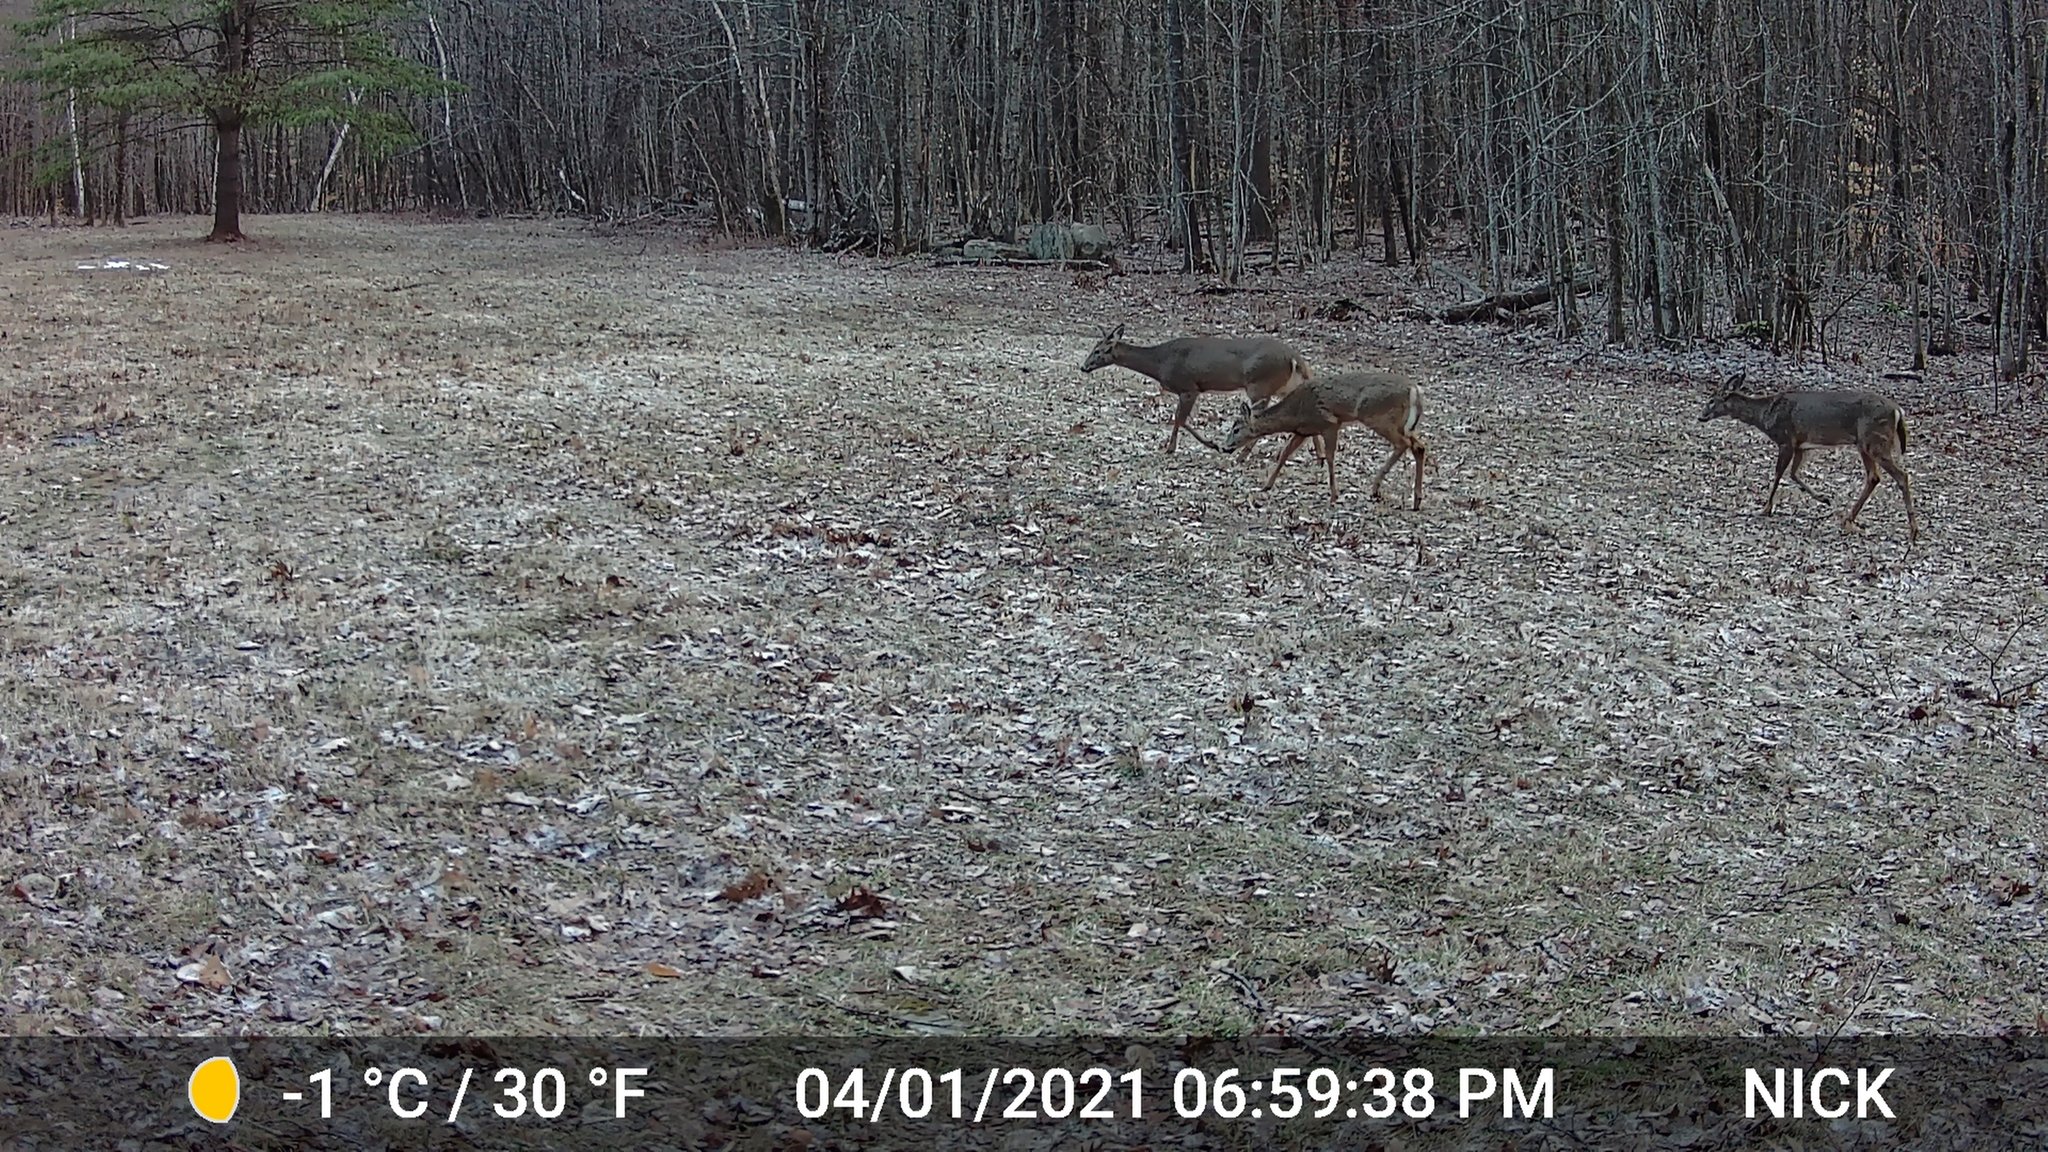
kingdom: Animalia
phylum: Chordata
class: Mammalia
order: Artiodactyla
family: Cervidae
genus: Odocoileus
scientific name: Odocoileus virginianus
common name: White-tailed deer
